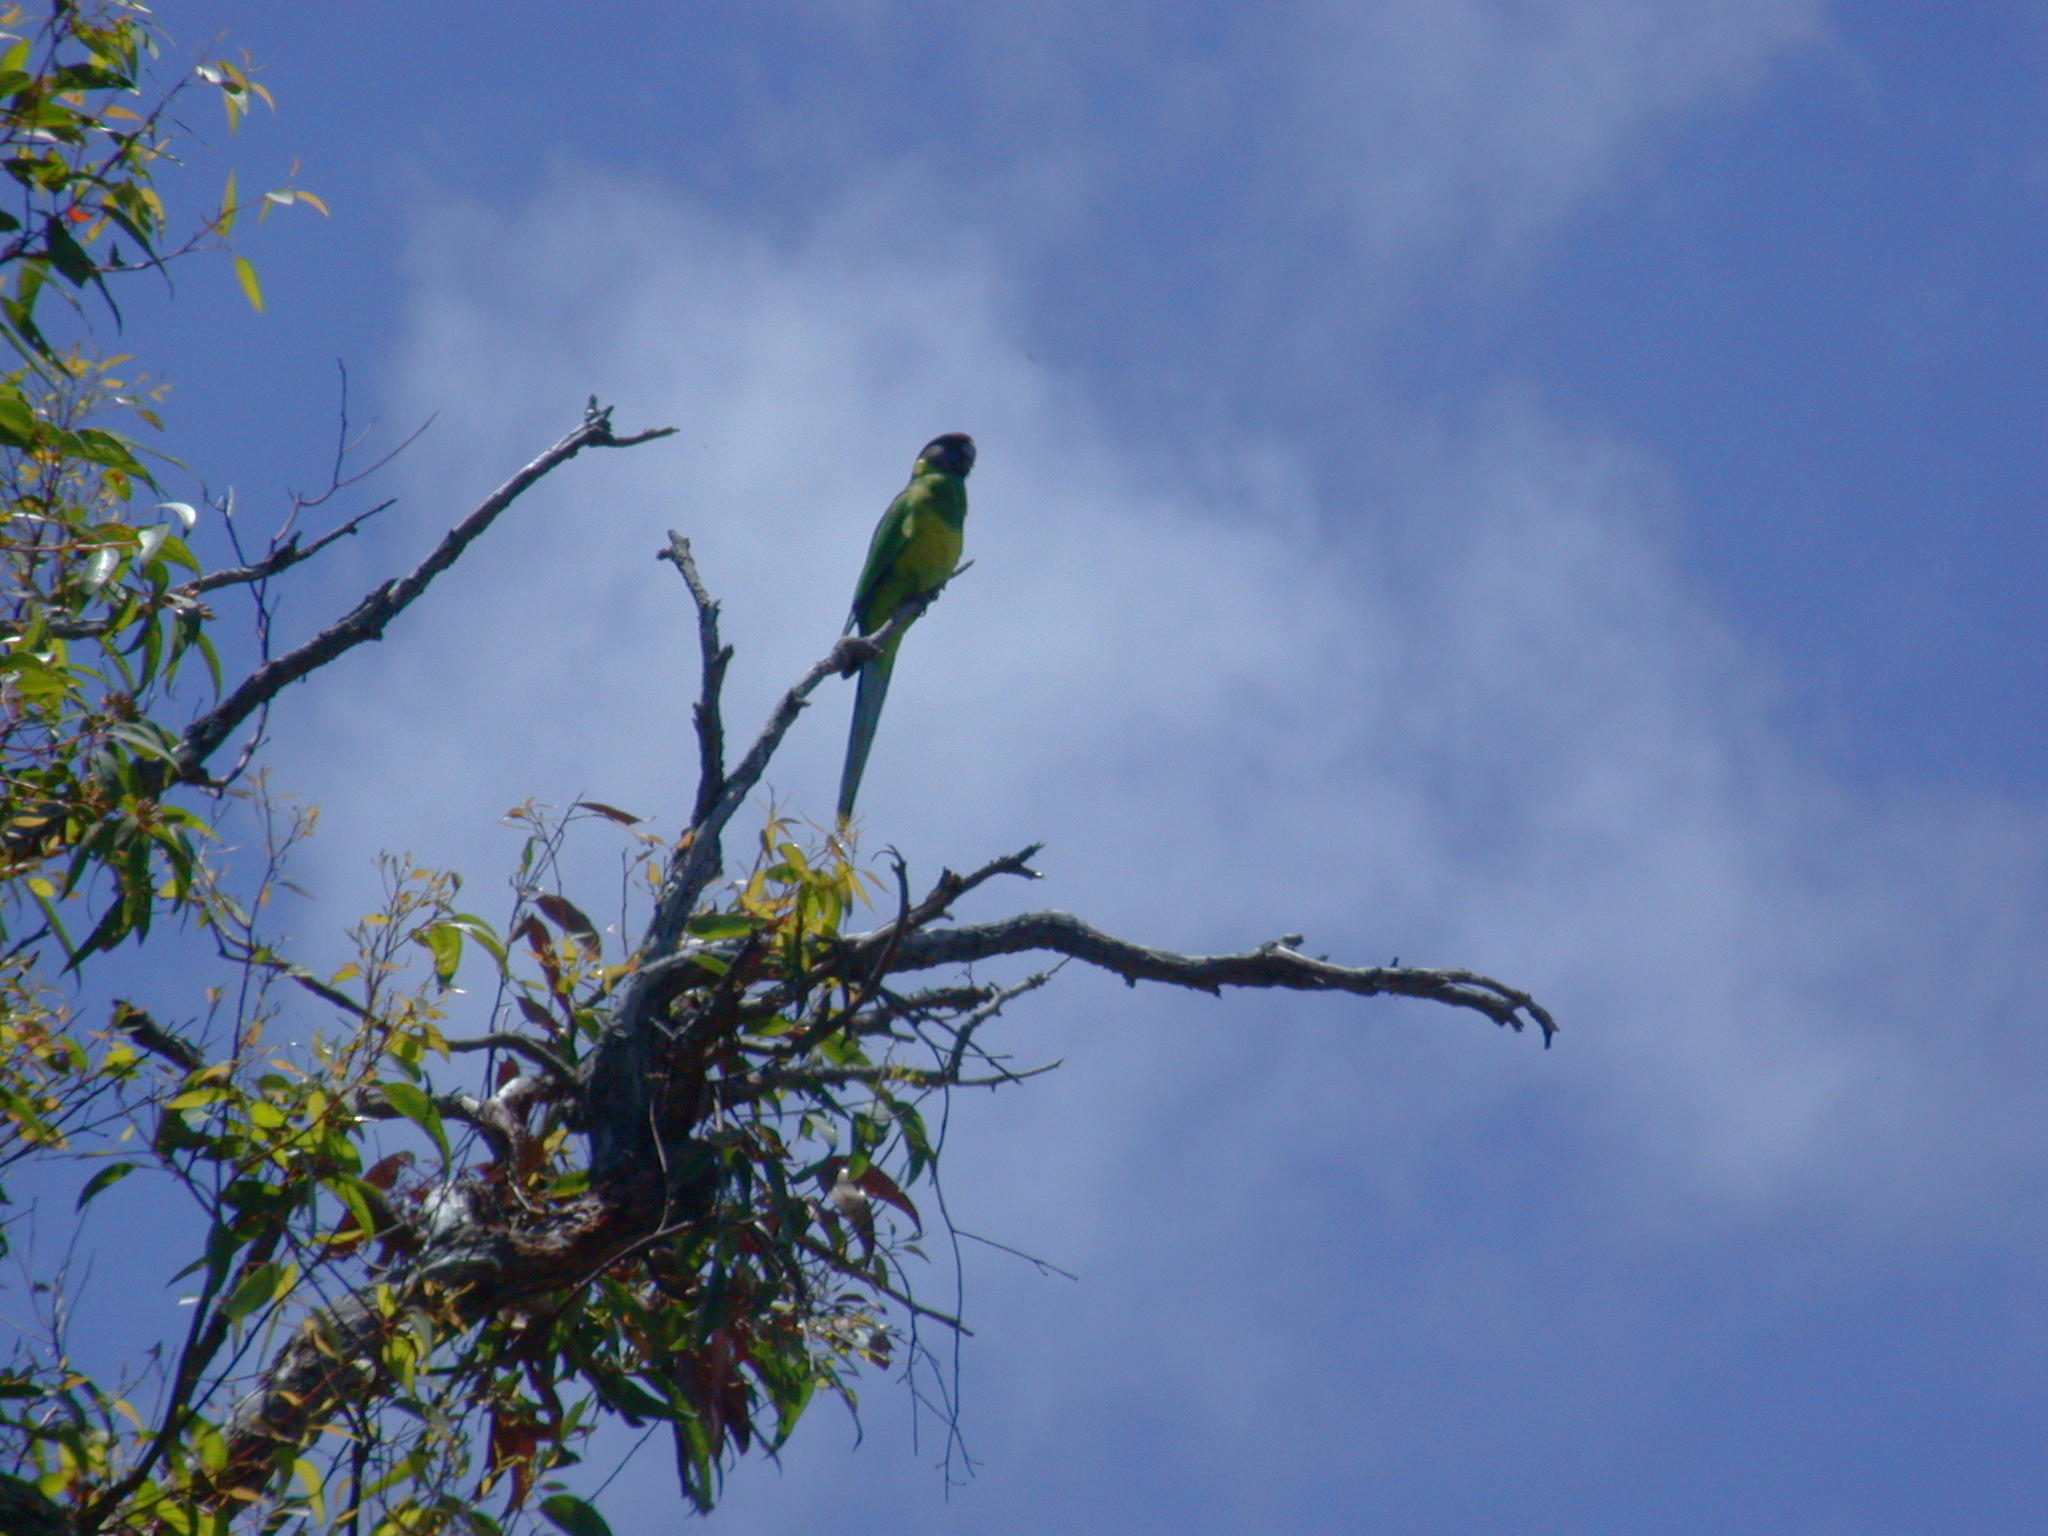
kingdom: Animalia
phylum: Chordata
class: Aves
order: Psittaciformes
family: Psittacidae
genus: Barnardius
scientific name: Barnardius zonarius
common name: Australian ringneck
